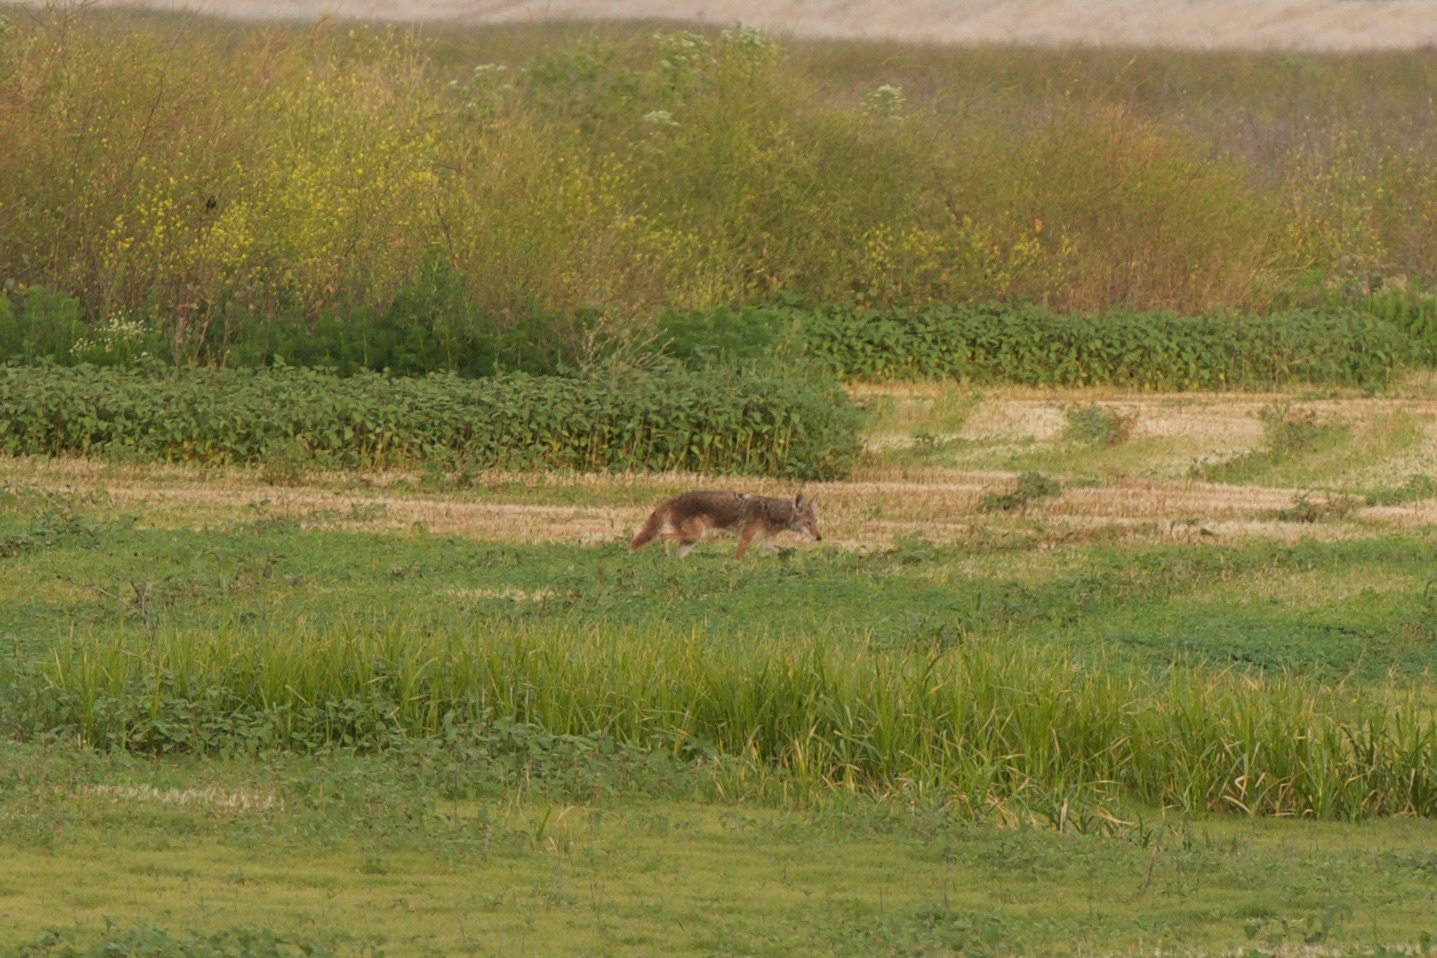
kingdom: Animalia
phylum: Chordata
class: Mammalia
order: Carnivora
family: Canidae
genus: Canis
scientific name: Canis latrans
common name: Coyote
